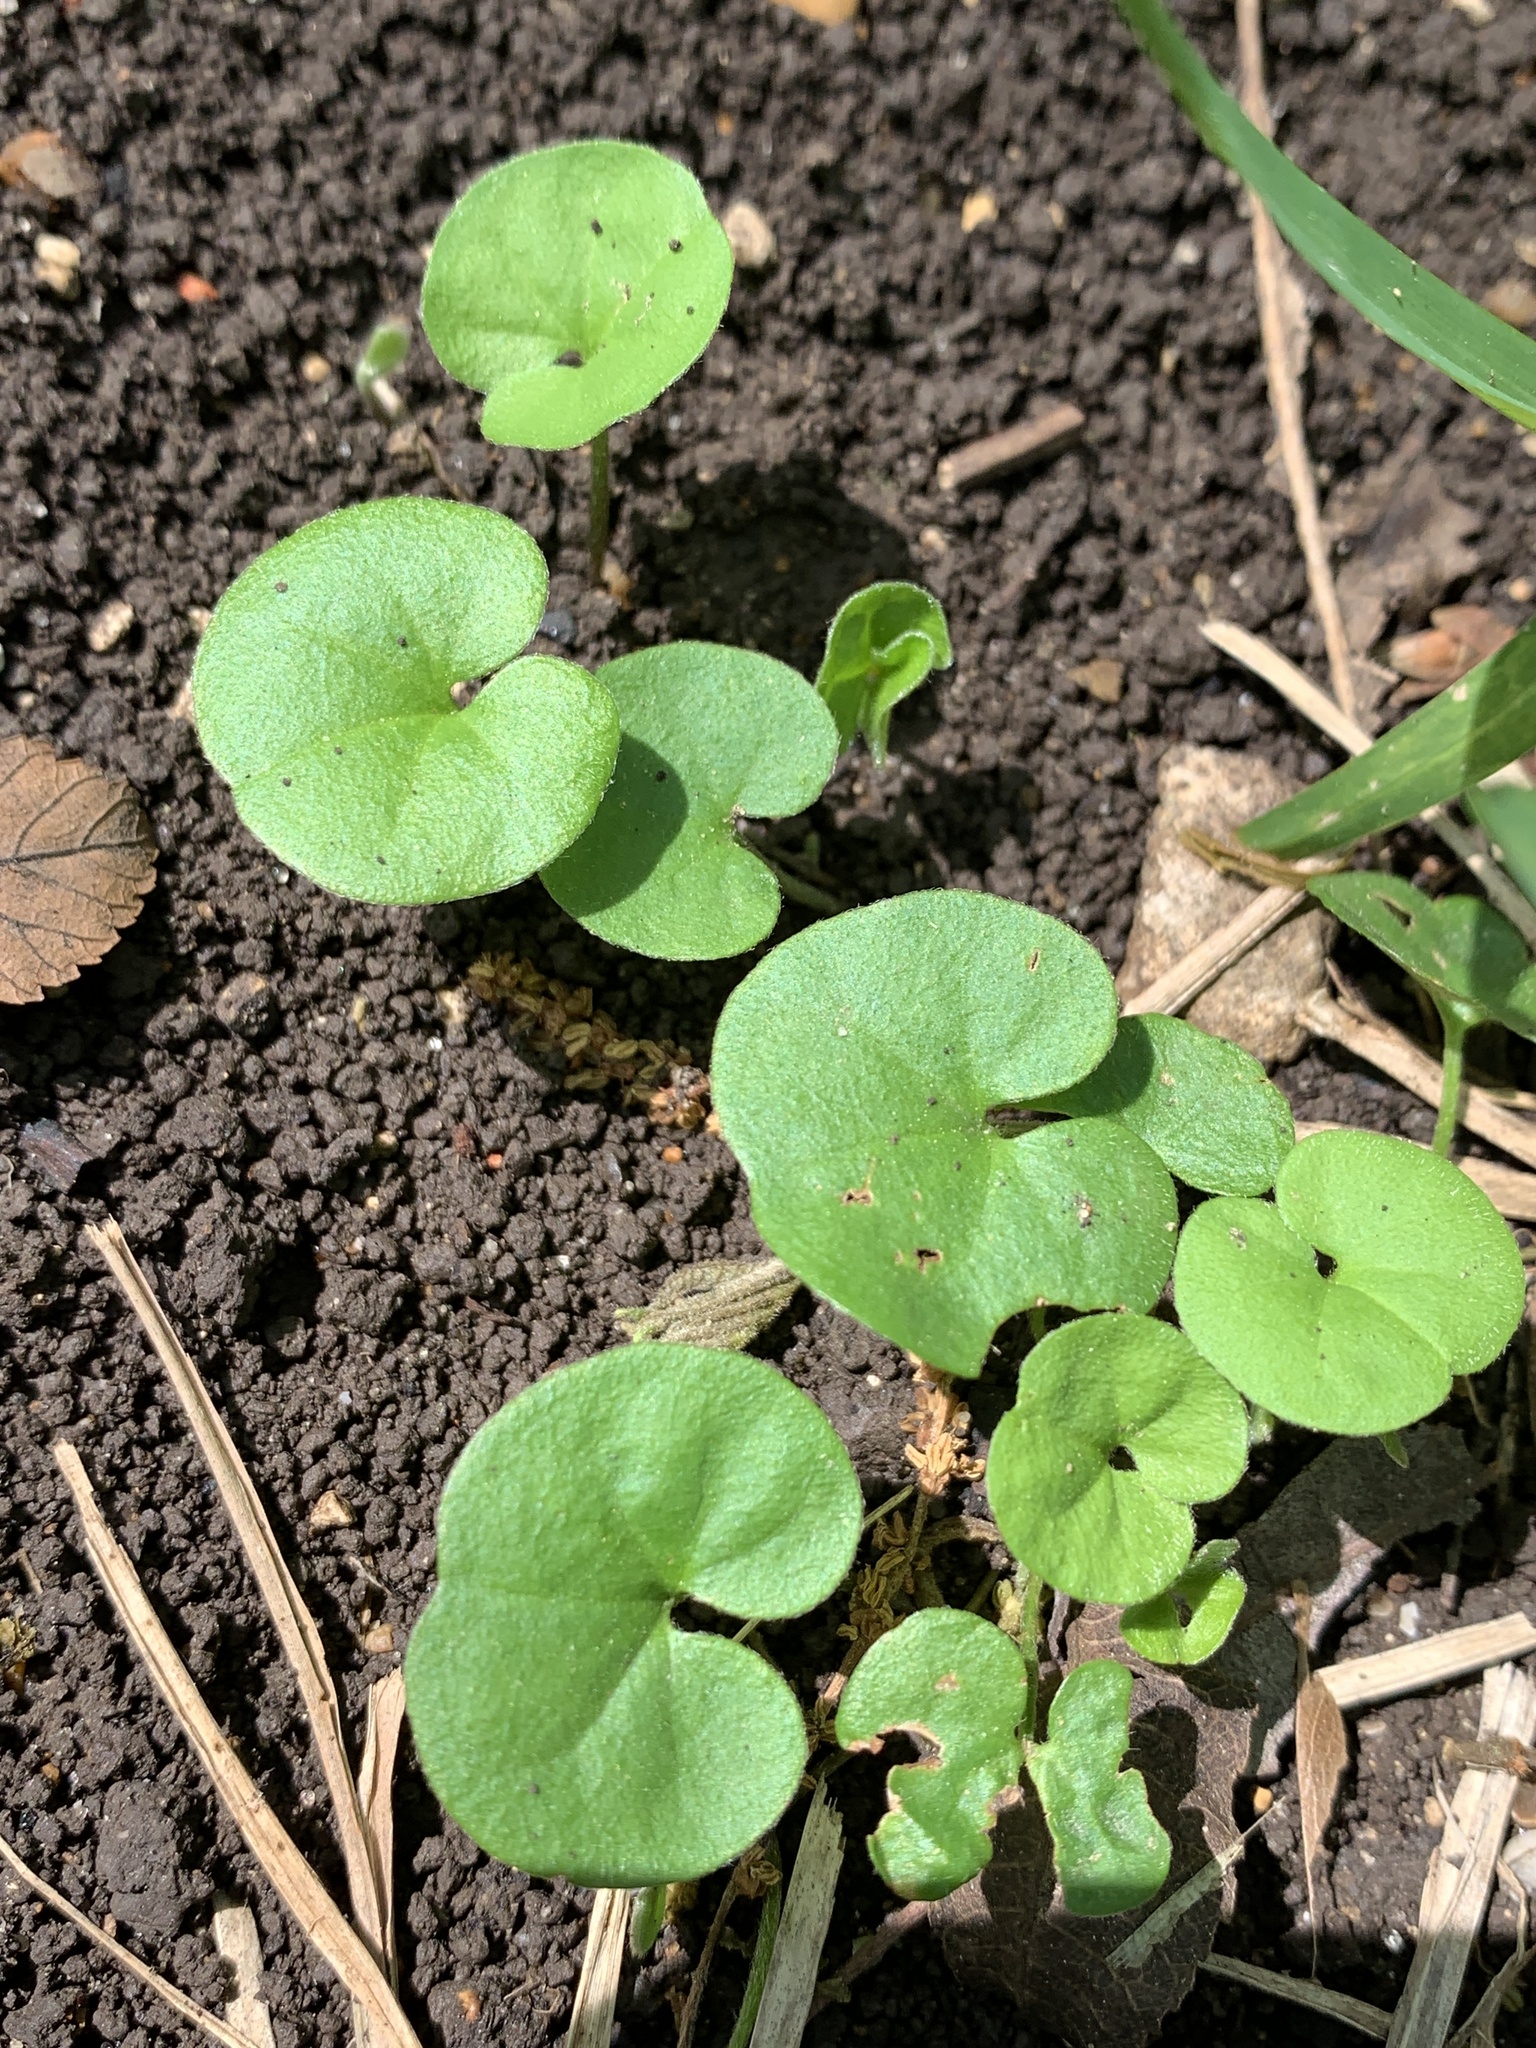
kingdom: Plantae
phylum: Tracheophyta
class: Magnoliopsida
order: Solanales
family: Convolvulaceae
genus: Dichondra
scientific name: Dichondra carolinensis
